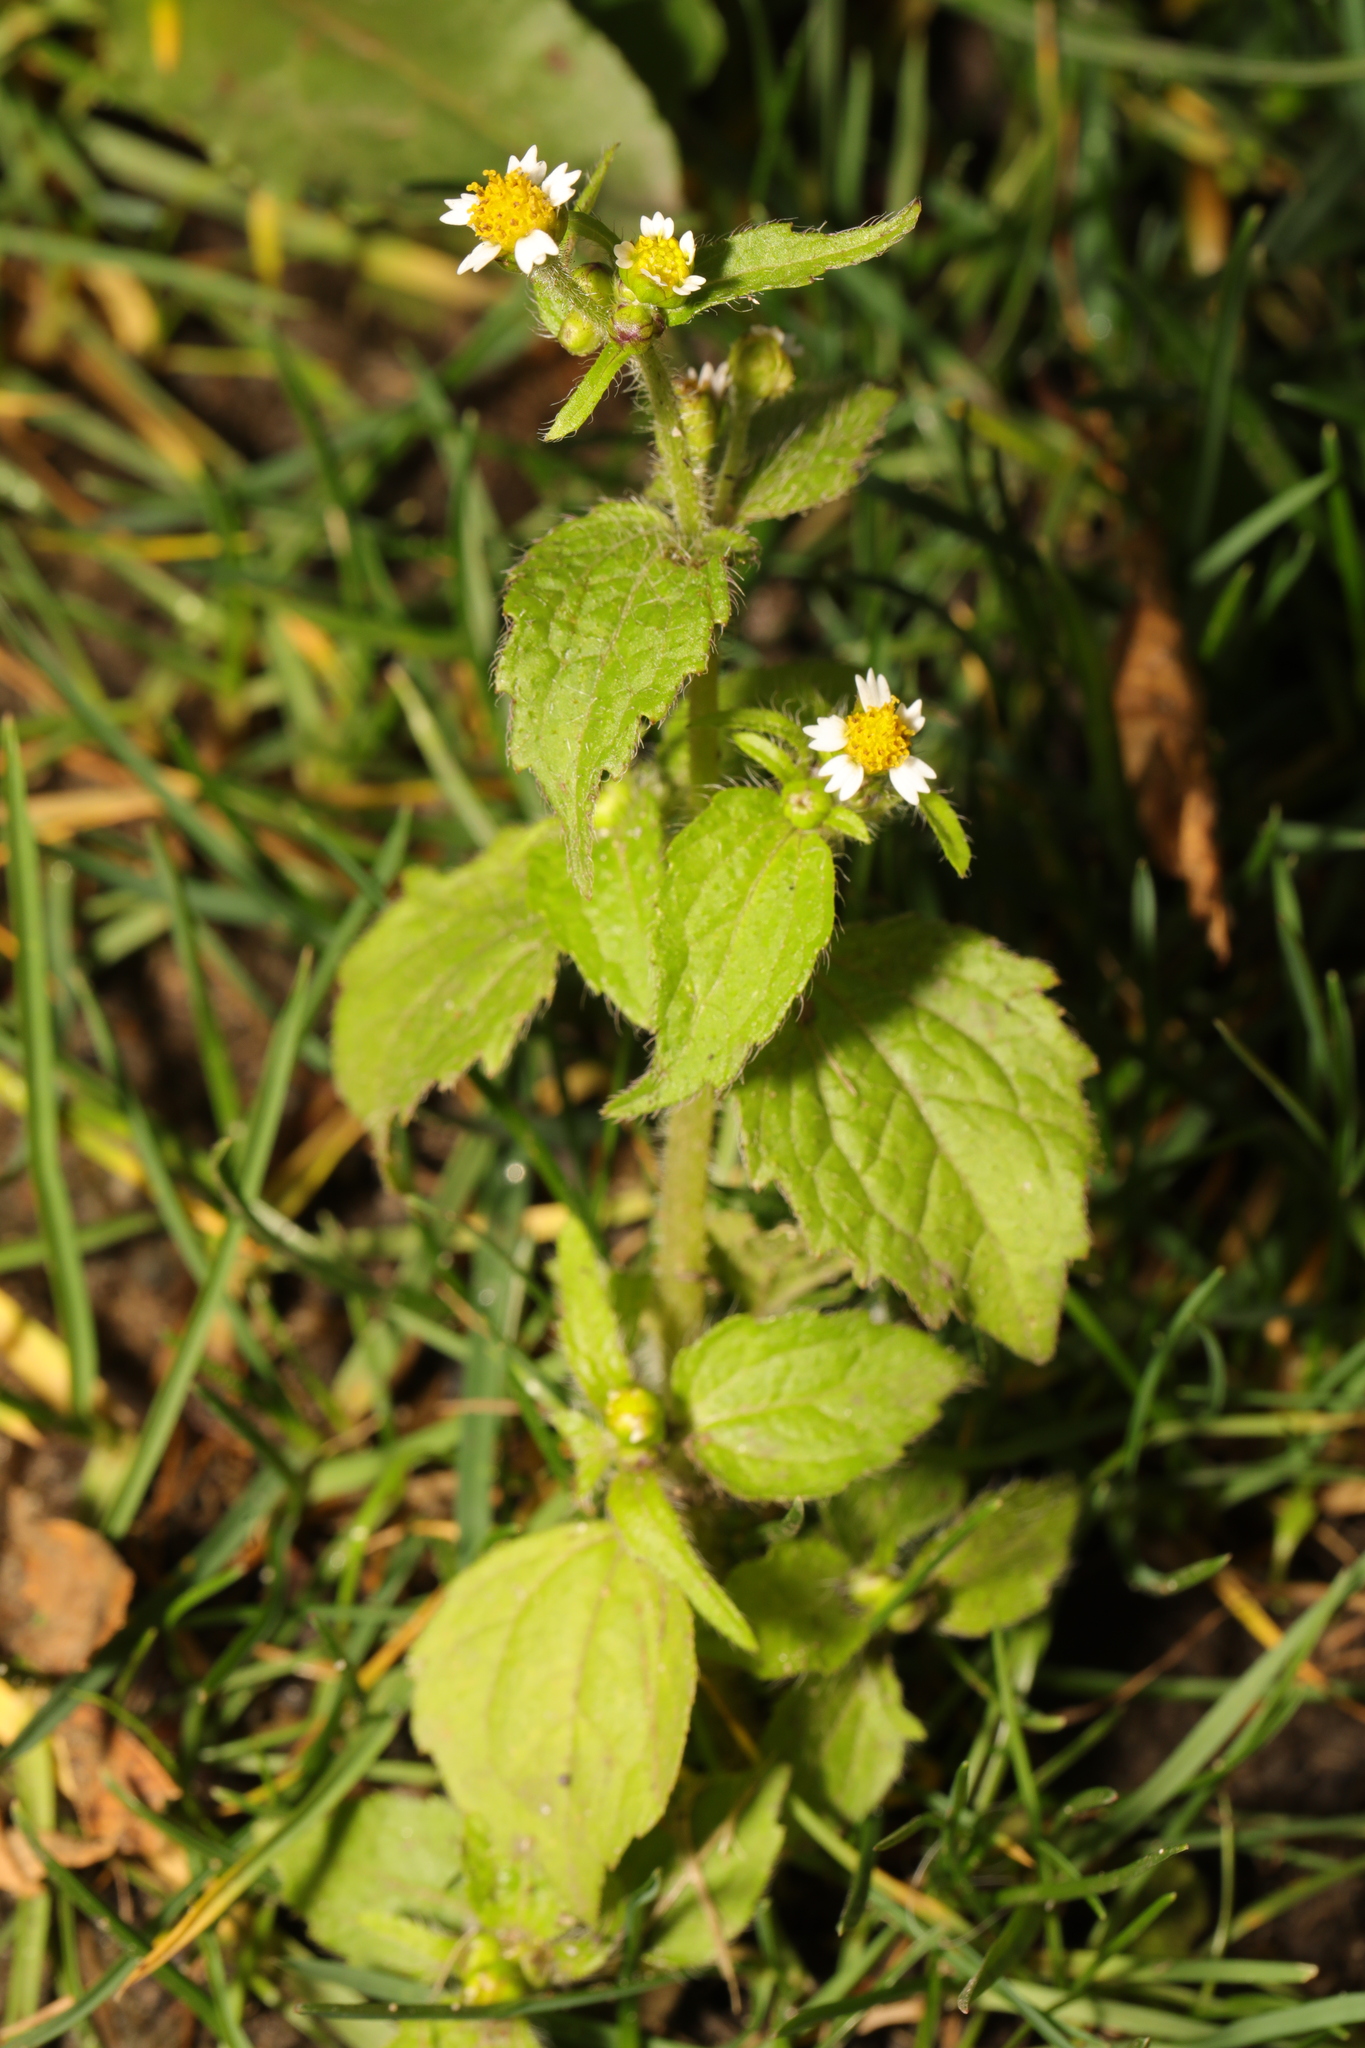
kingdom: Plantae
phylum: Tracheophyta
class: Magnoliopsida
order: Asterales
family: Asteraceae
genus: Galinsoga
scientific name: Galinsoga quadriradiata
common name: Shaggy soldier
